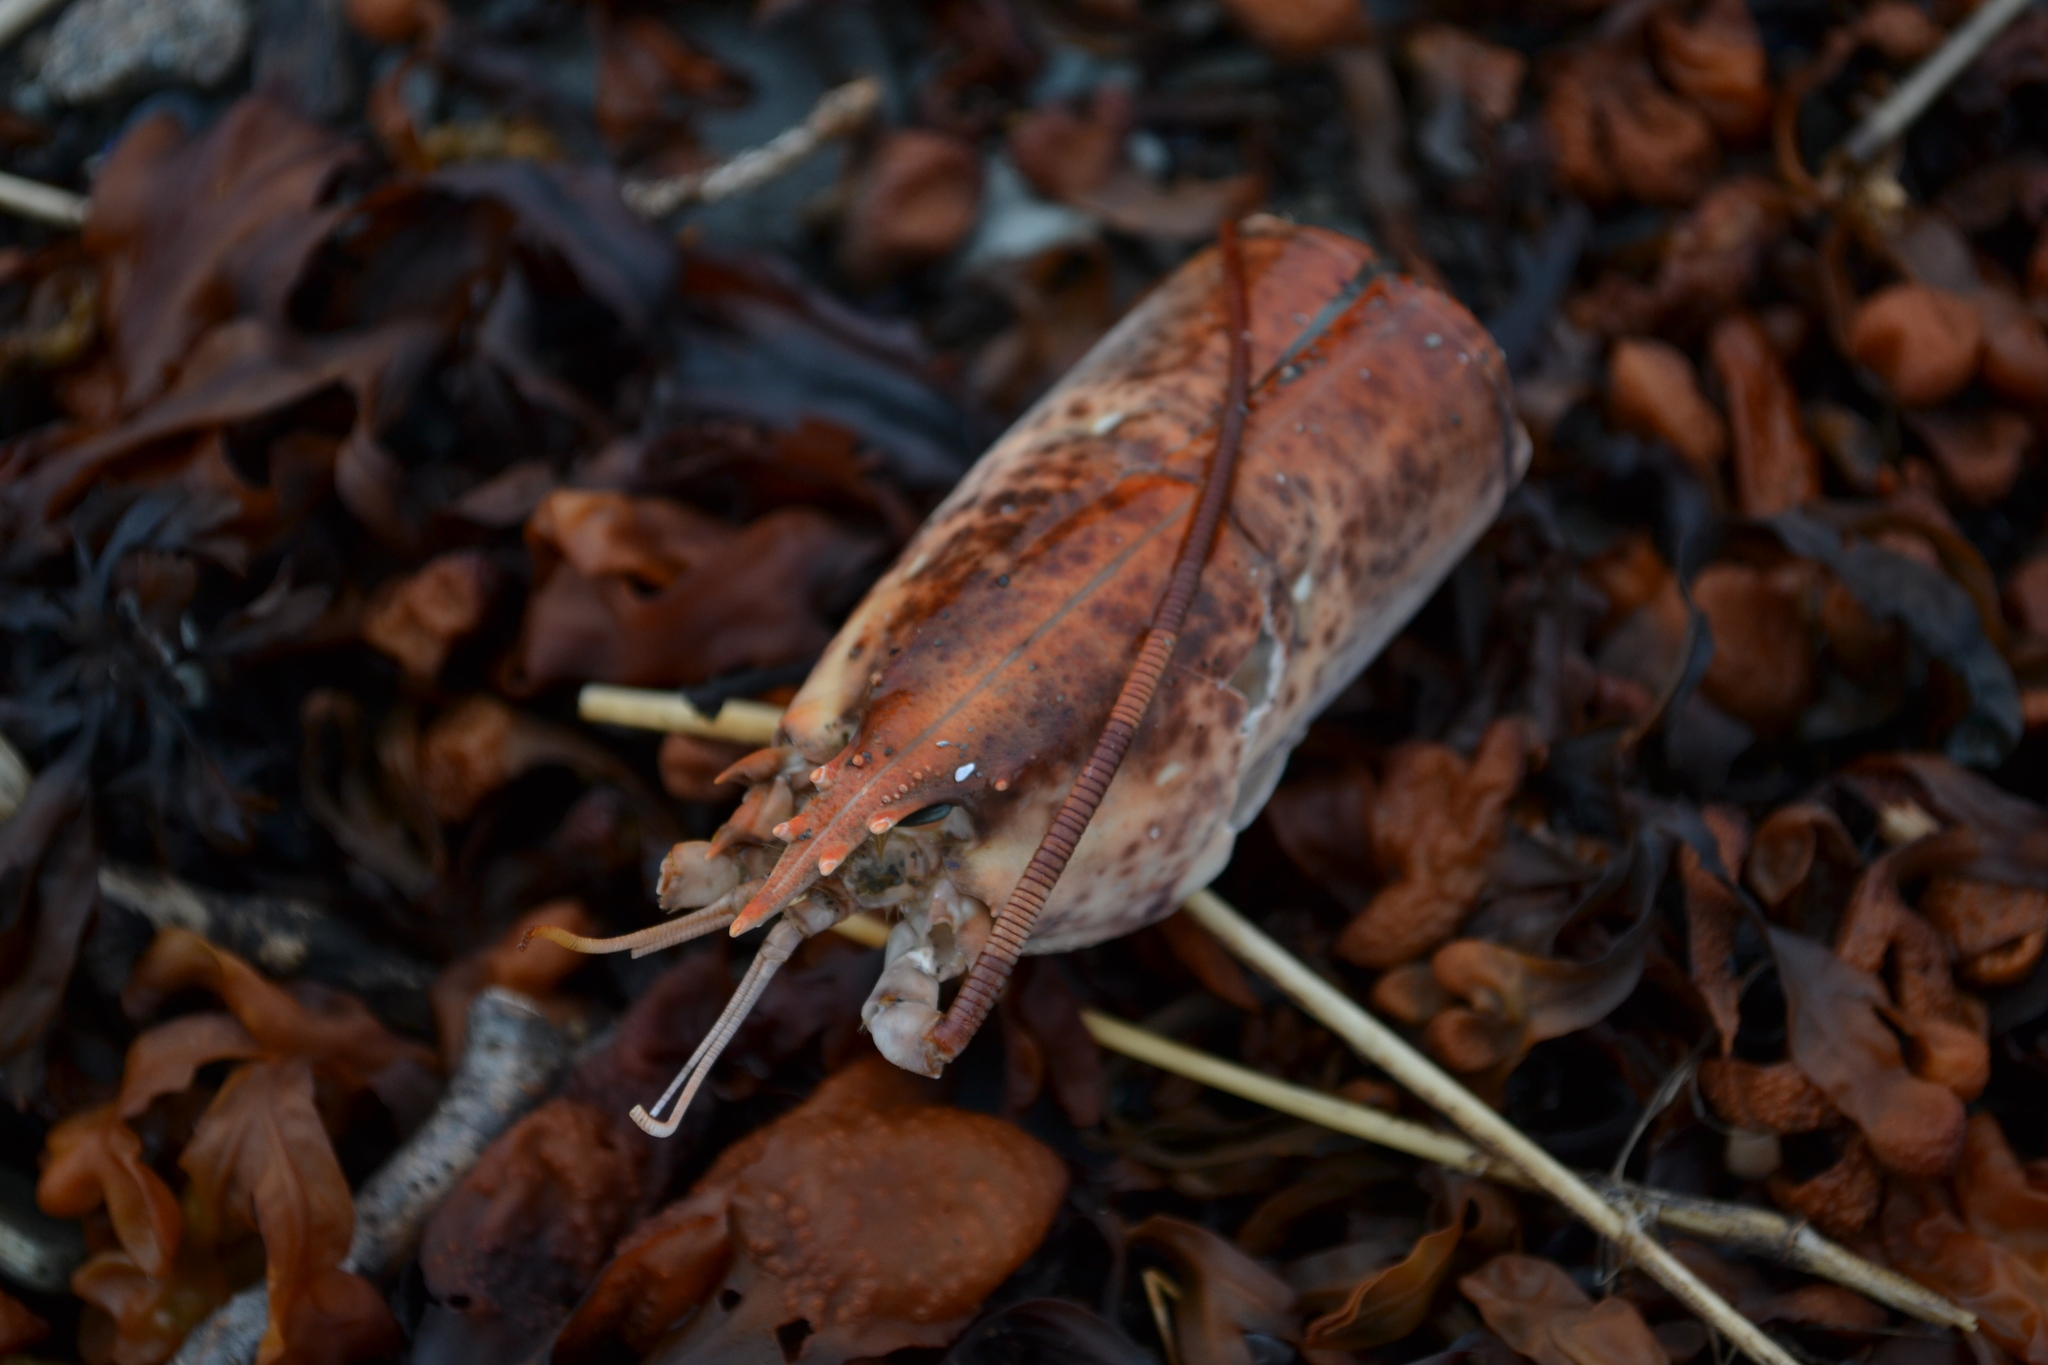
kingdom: Animalia
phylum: Arthropoda
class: Malacostraca
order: Decapoda
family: Nephropidae
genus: Homarus
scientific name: Homarus americanus
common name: American lobster
